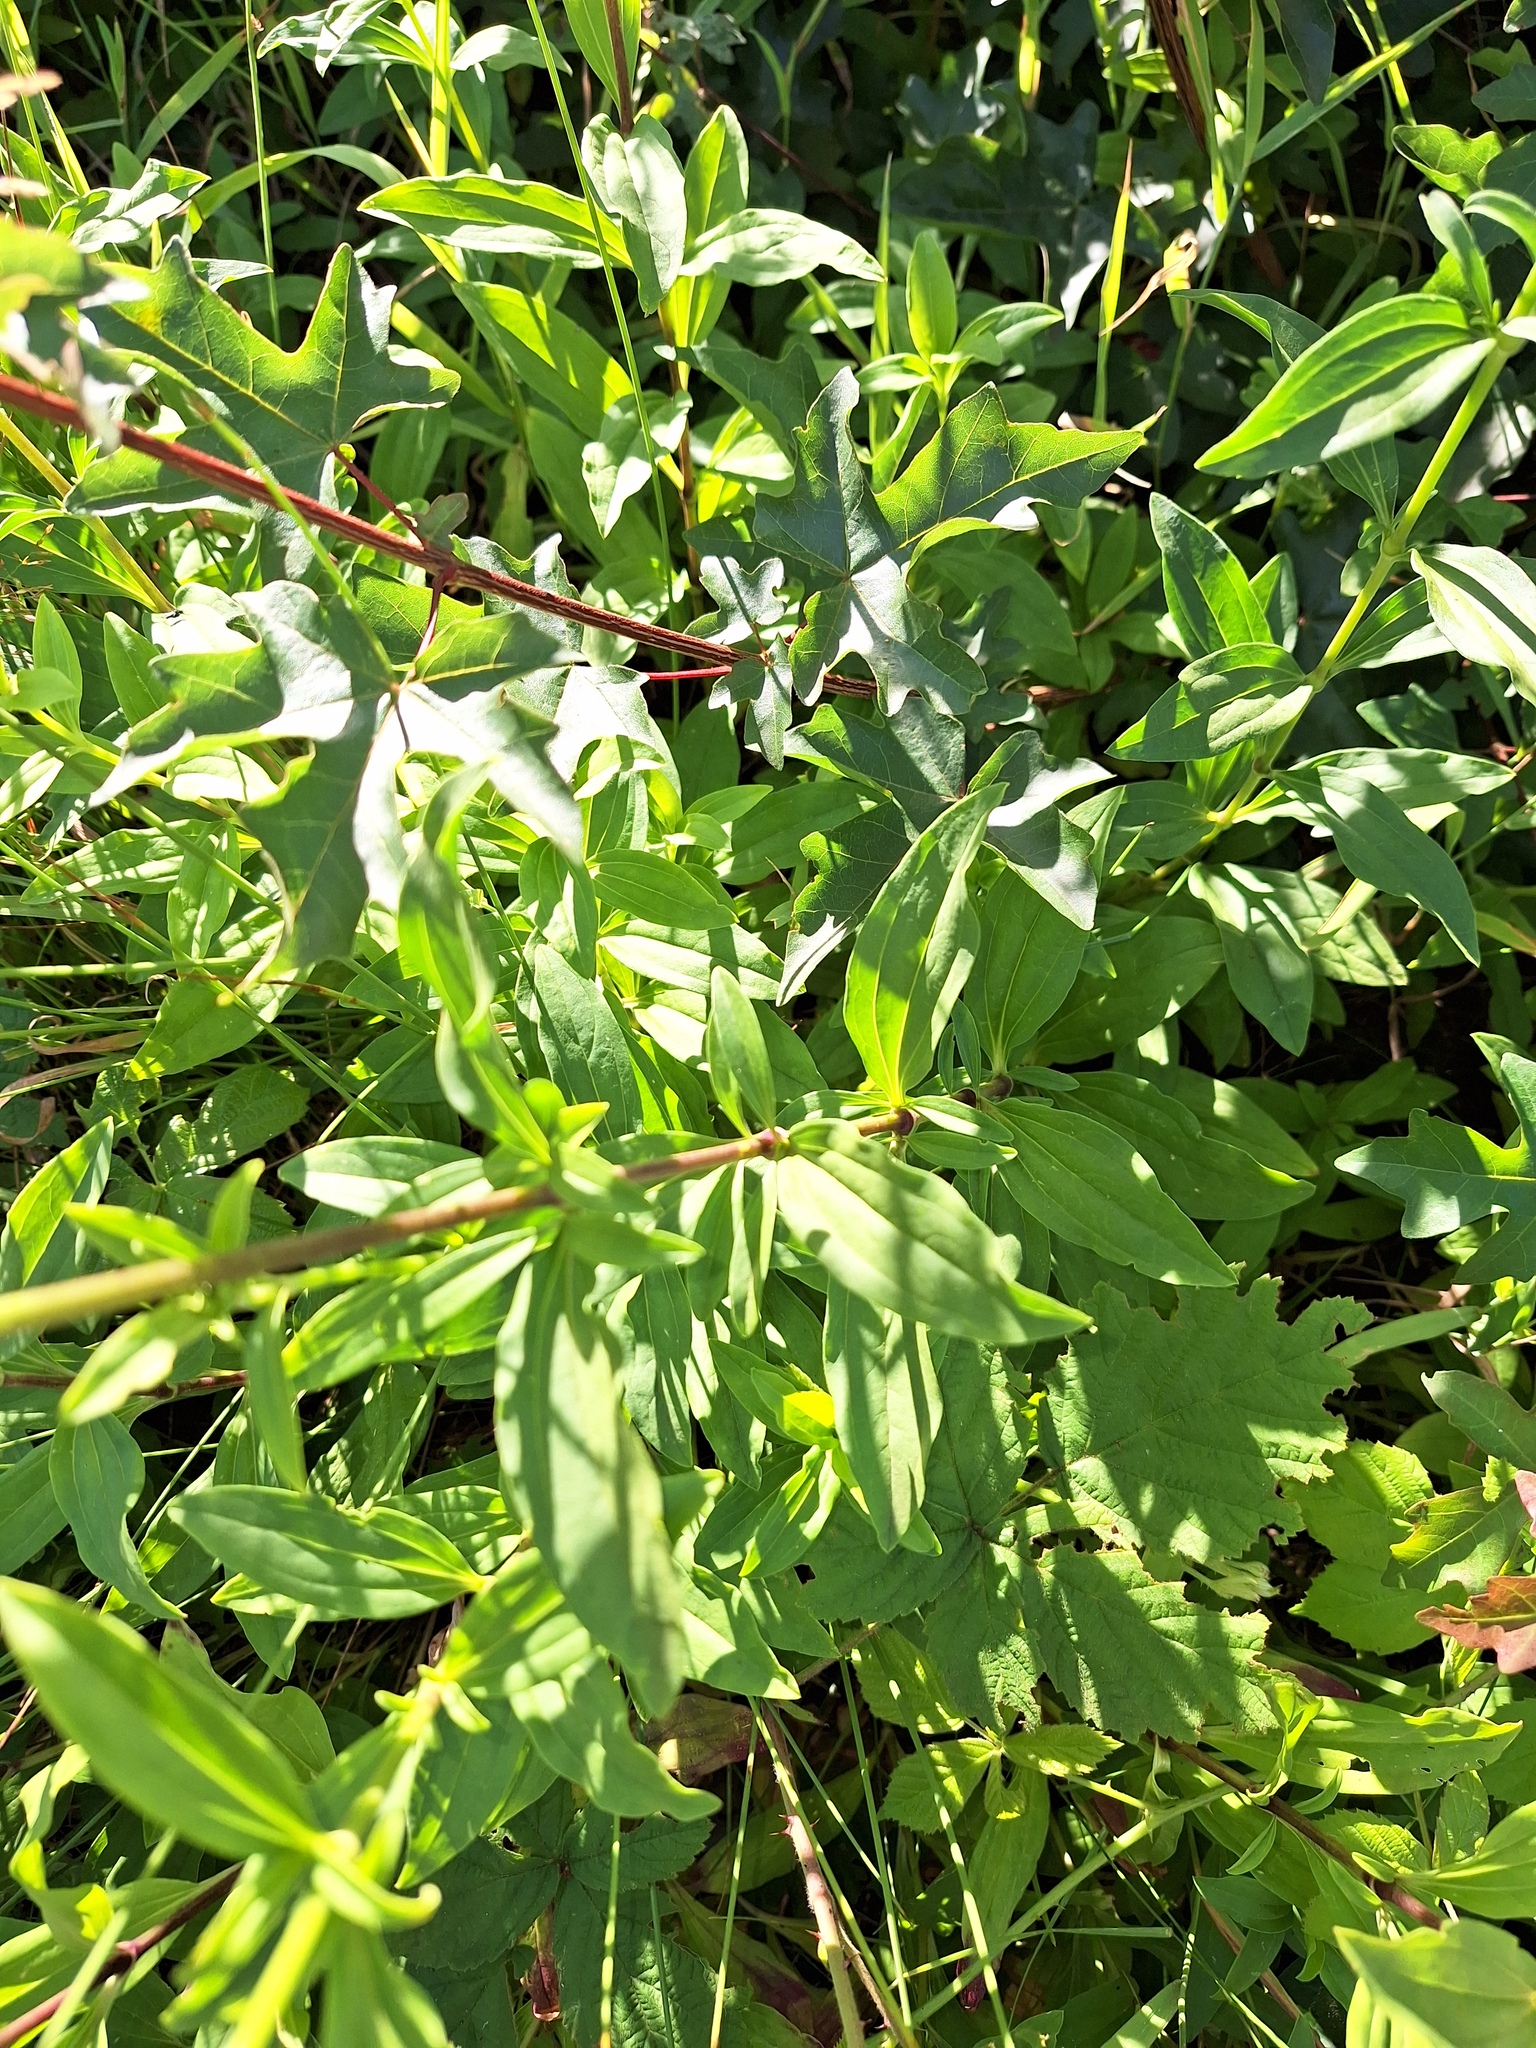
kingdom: Plantae
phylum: Tracheophyta
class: Magnoliopsida
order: Caryophyllales
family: Caryophyllaceae
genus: Saponaria
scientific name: Saponaria officinalis
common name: Soapwort
